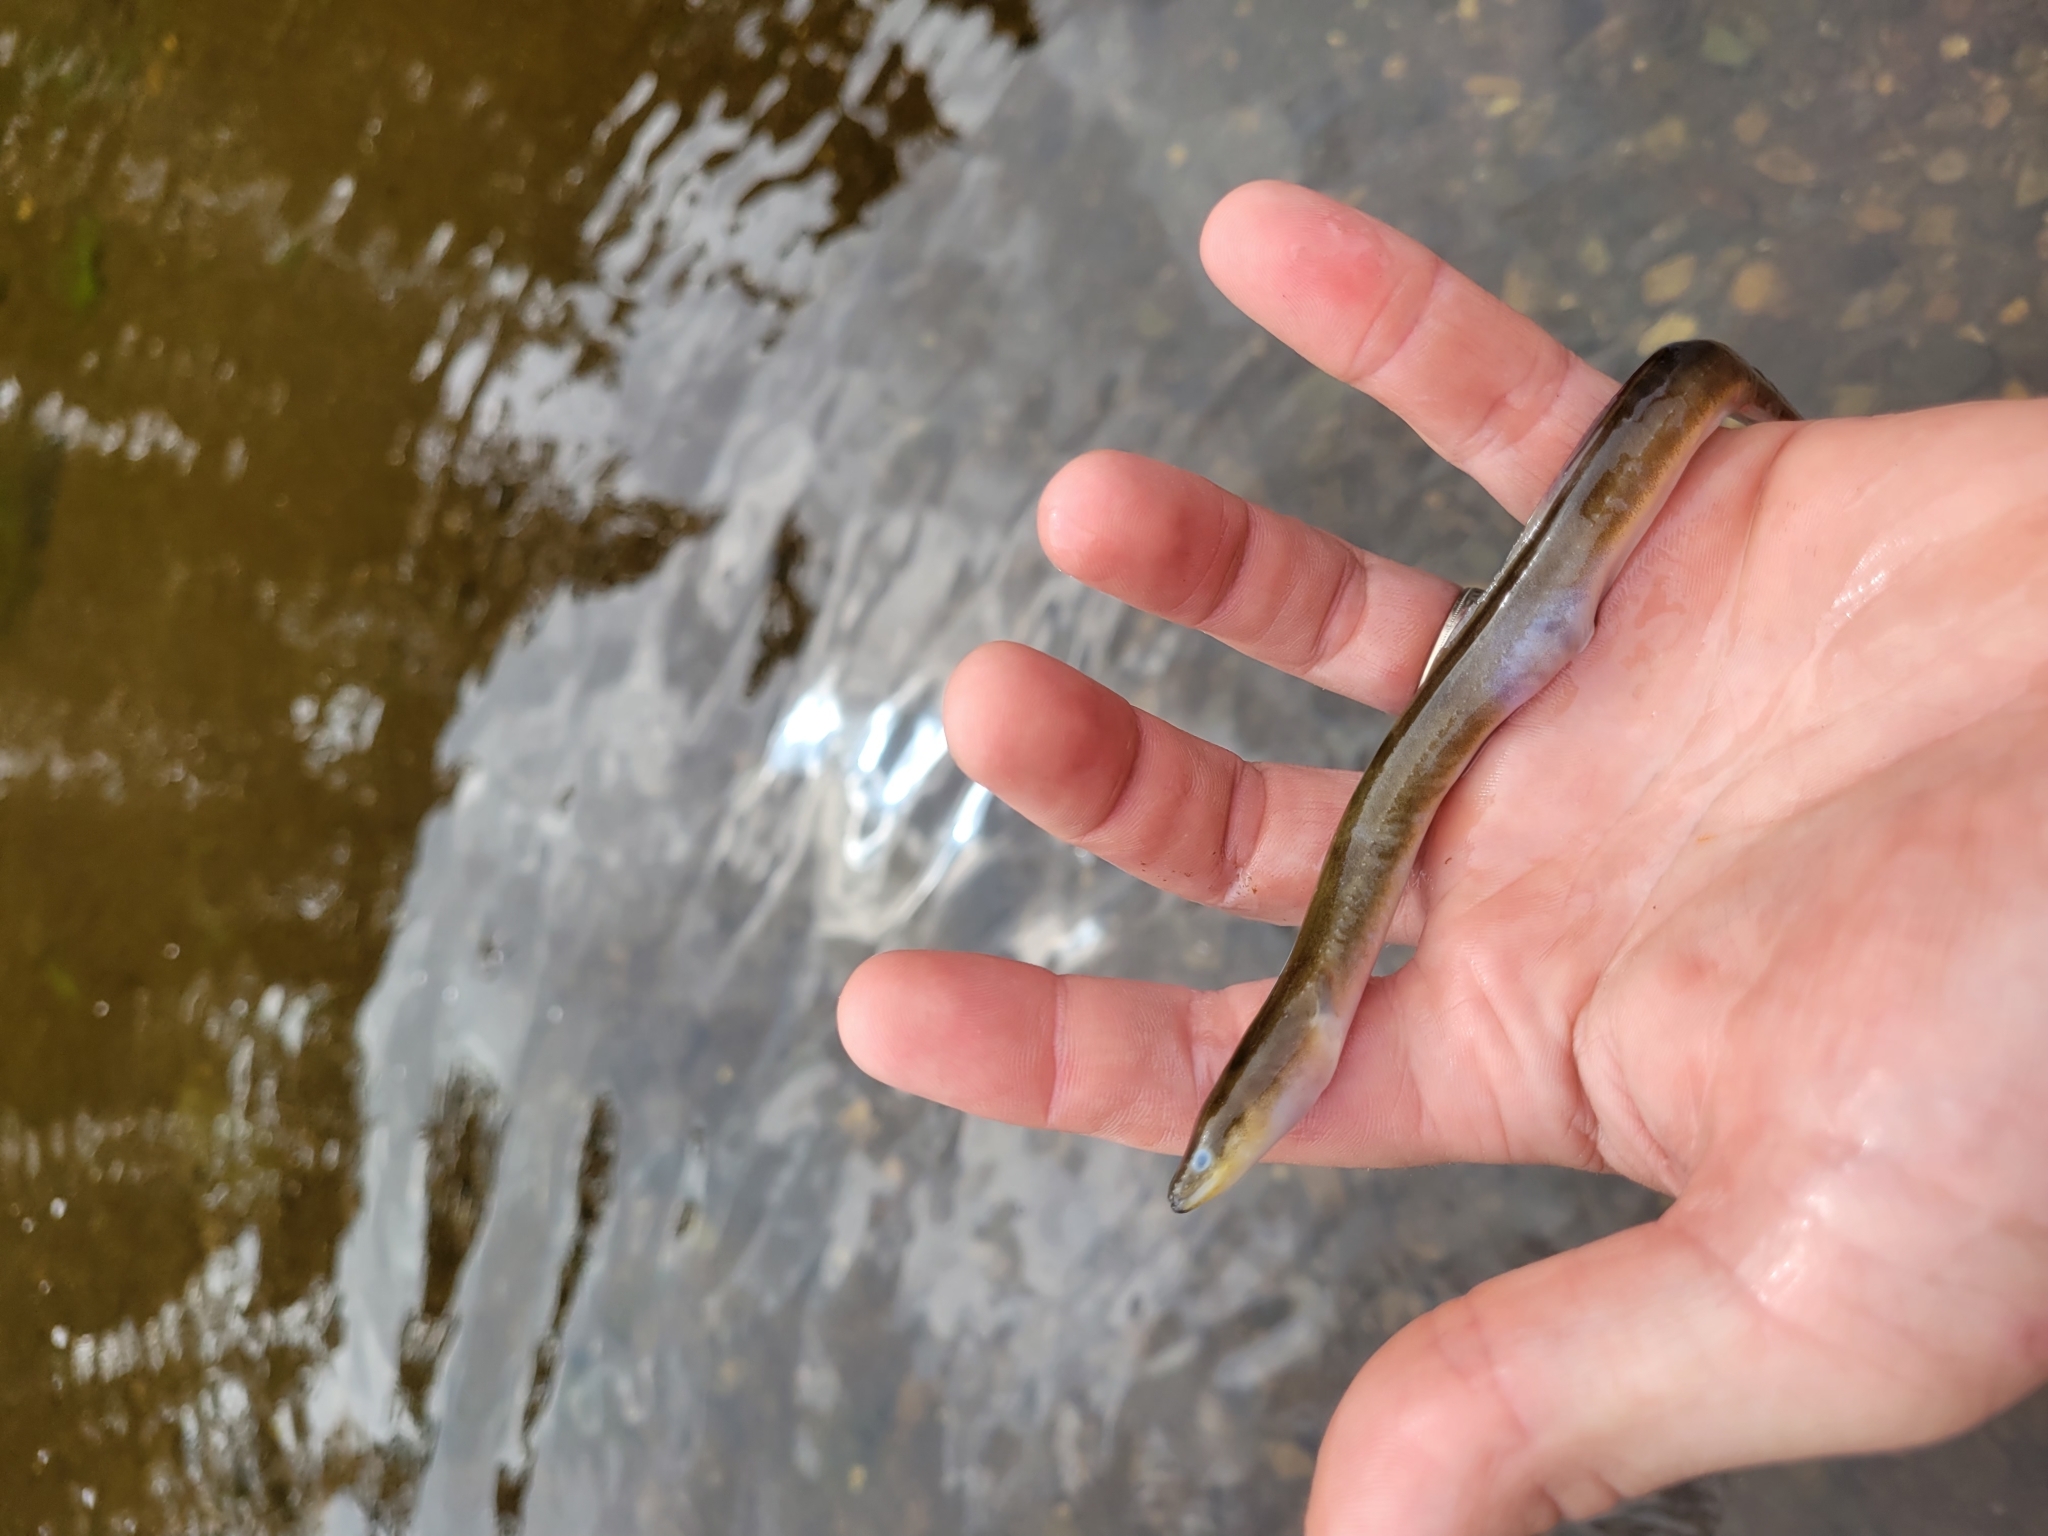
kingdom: Animalia
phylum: Chordata
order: Anguilliformes
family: Anguillidae
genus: Anguilla
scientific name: Anguilla rostrata
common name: American eel
